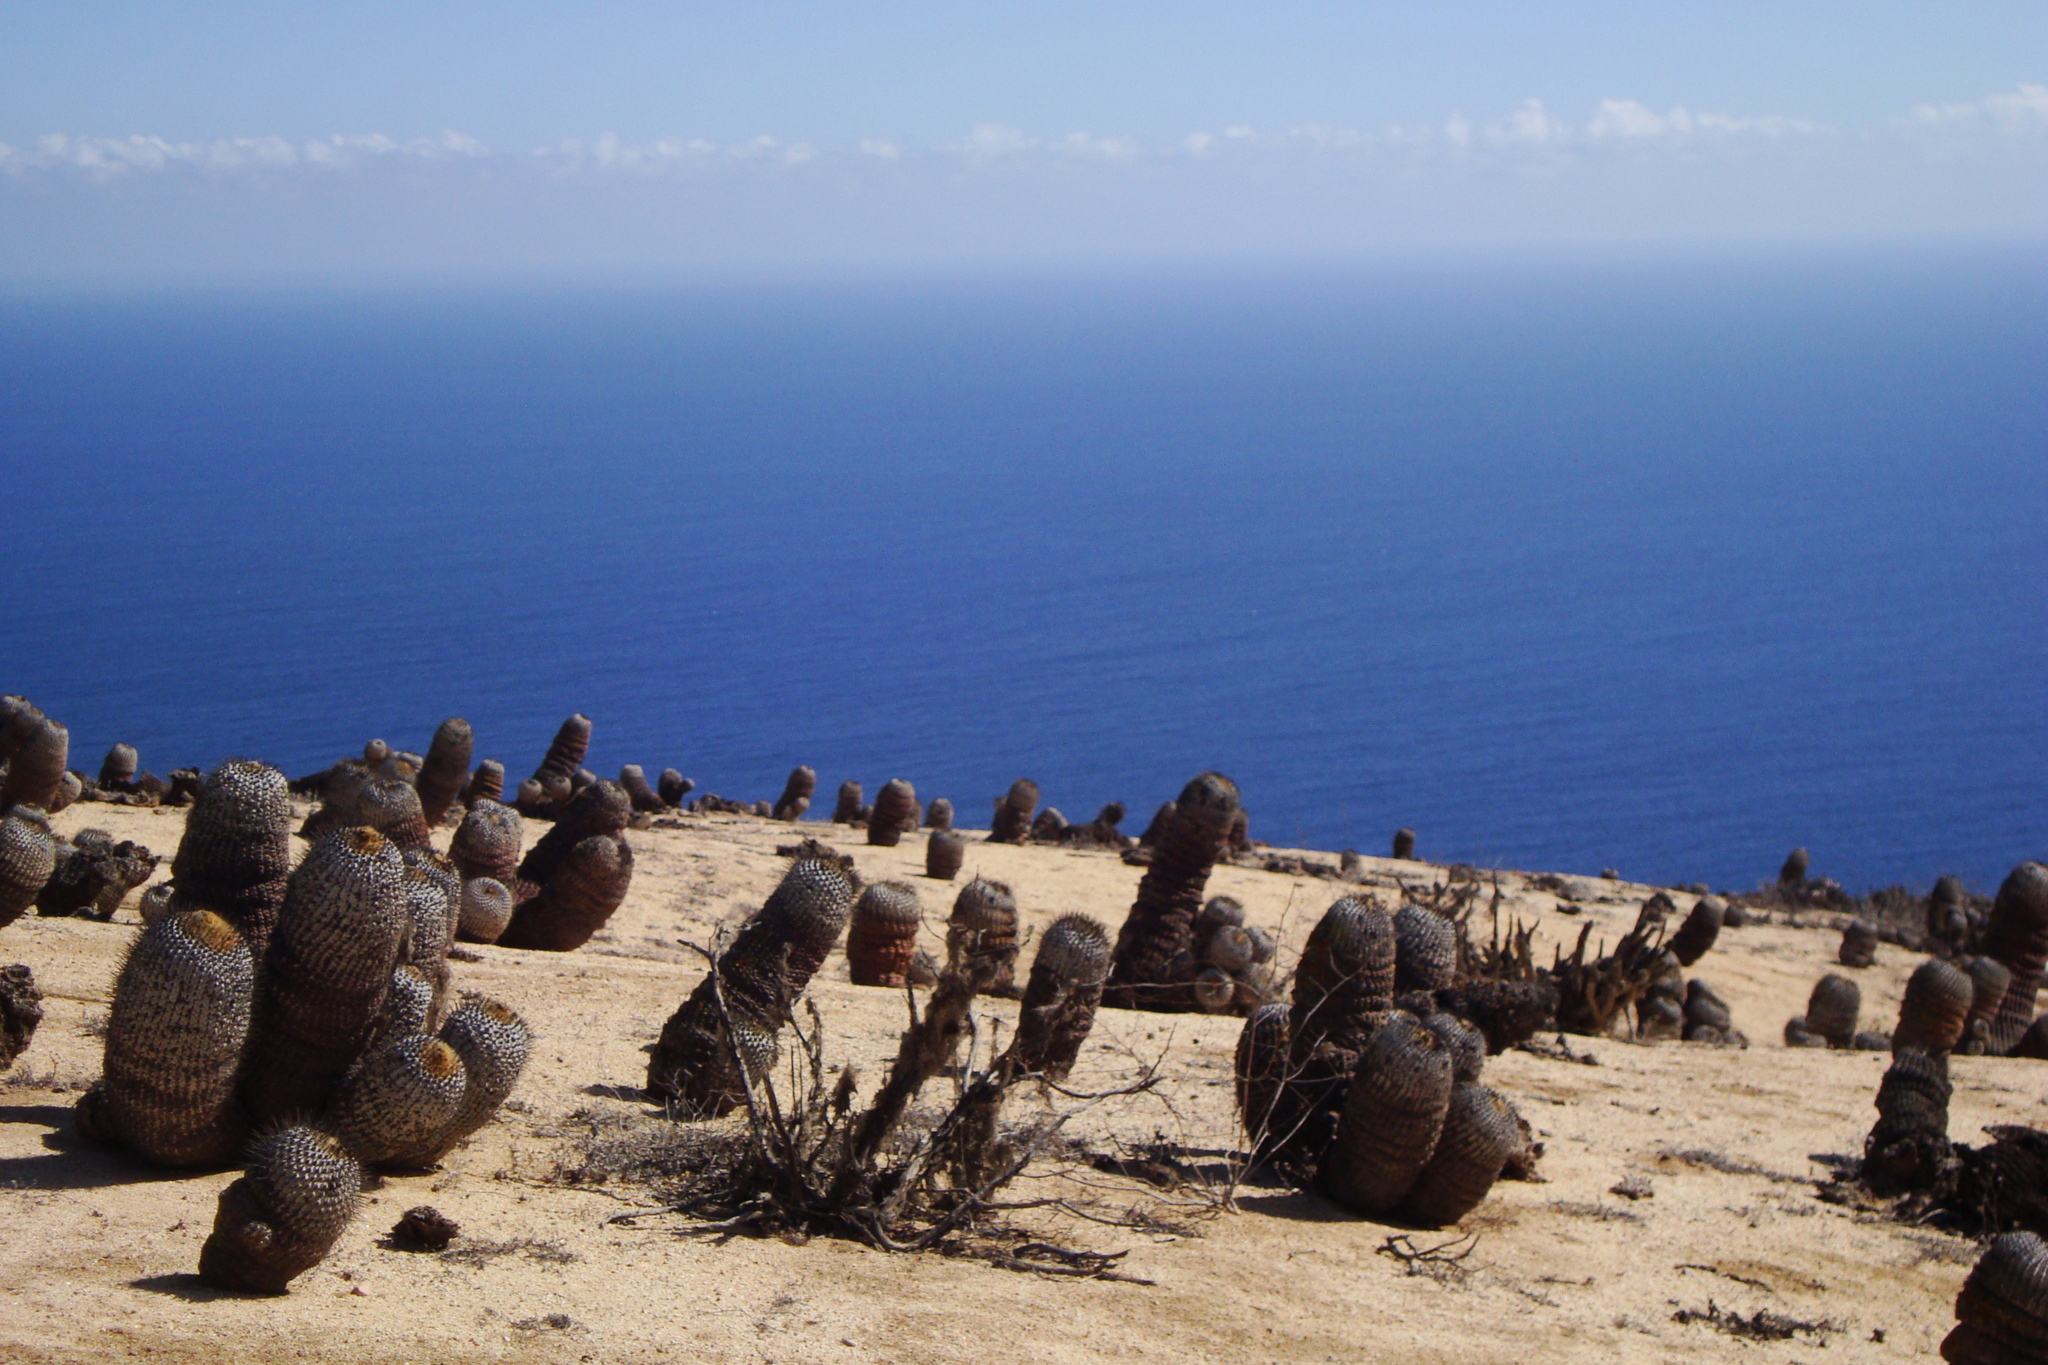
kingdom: Plantae
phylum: Tracheophyta
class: Magnoliopsida
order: Caryophyllales
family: Cactaceae
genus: Copiapoa
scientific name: Copiapoa cinerea
